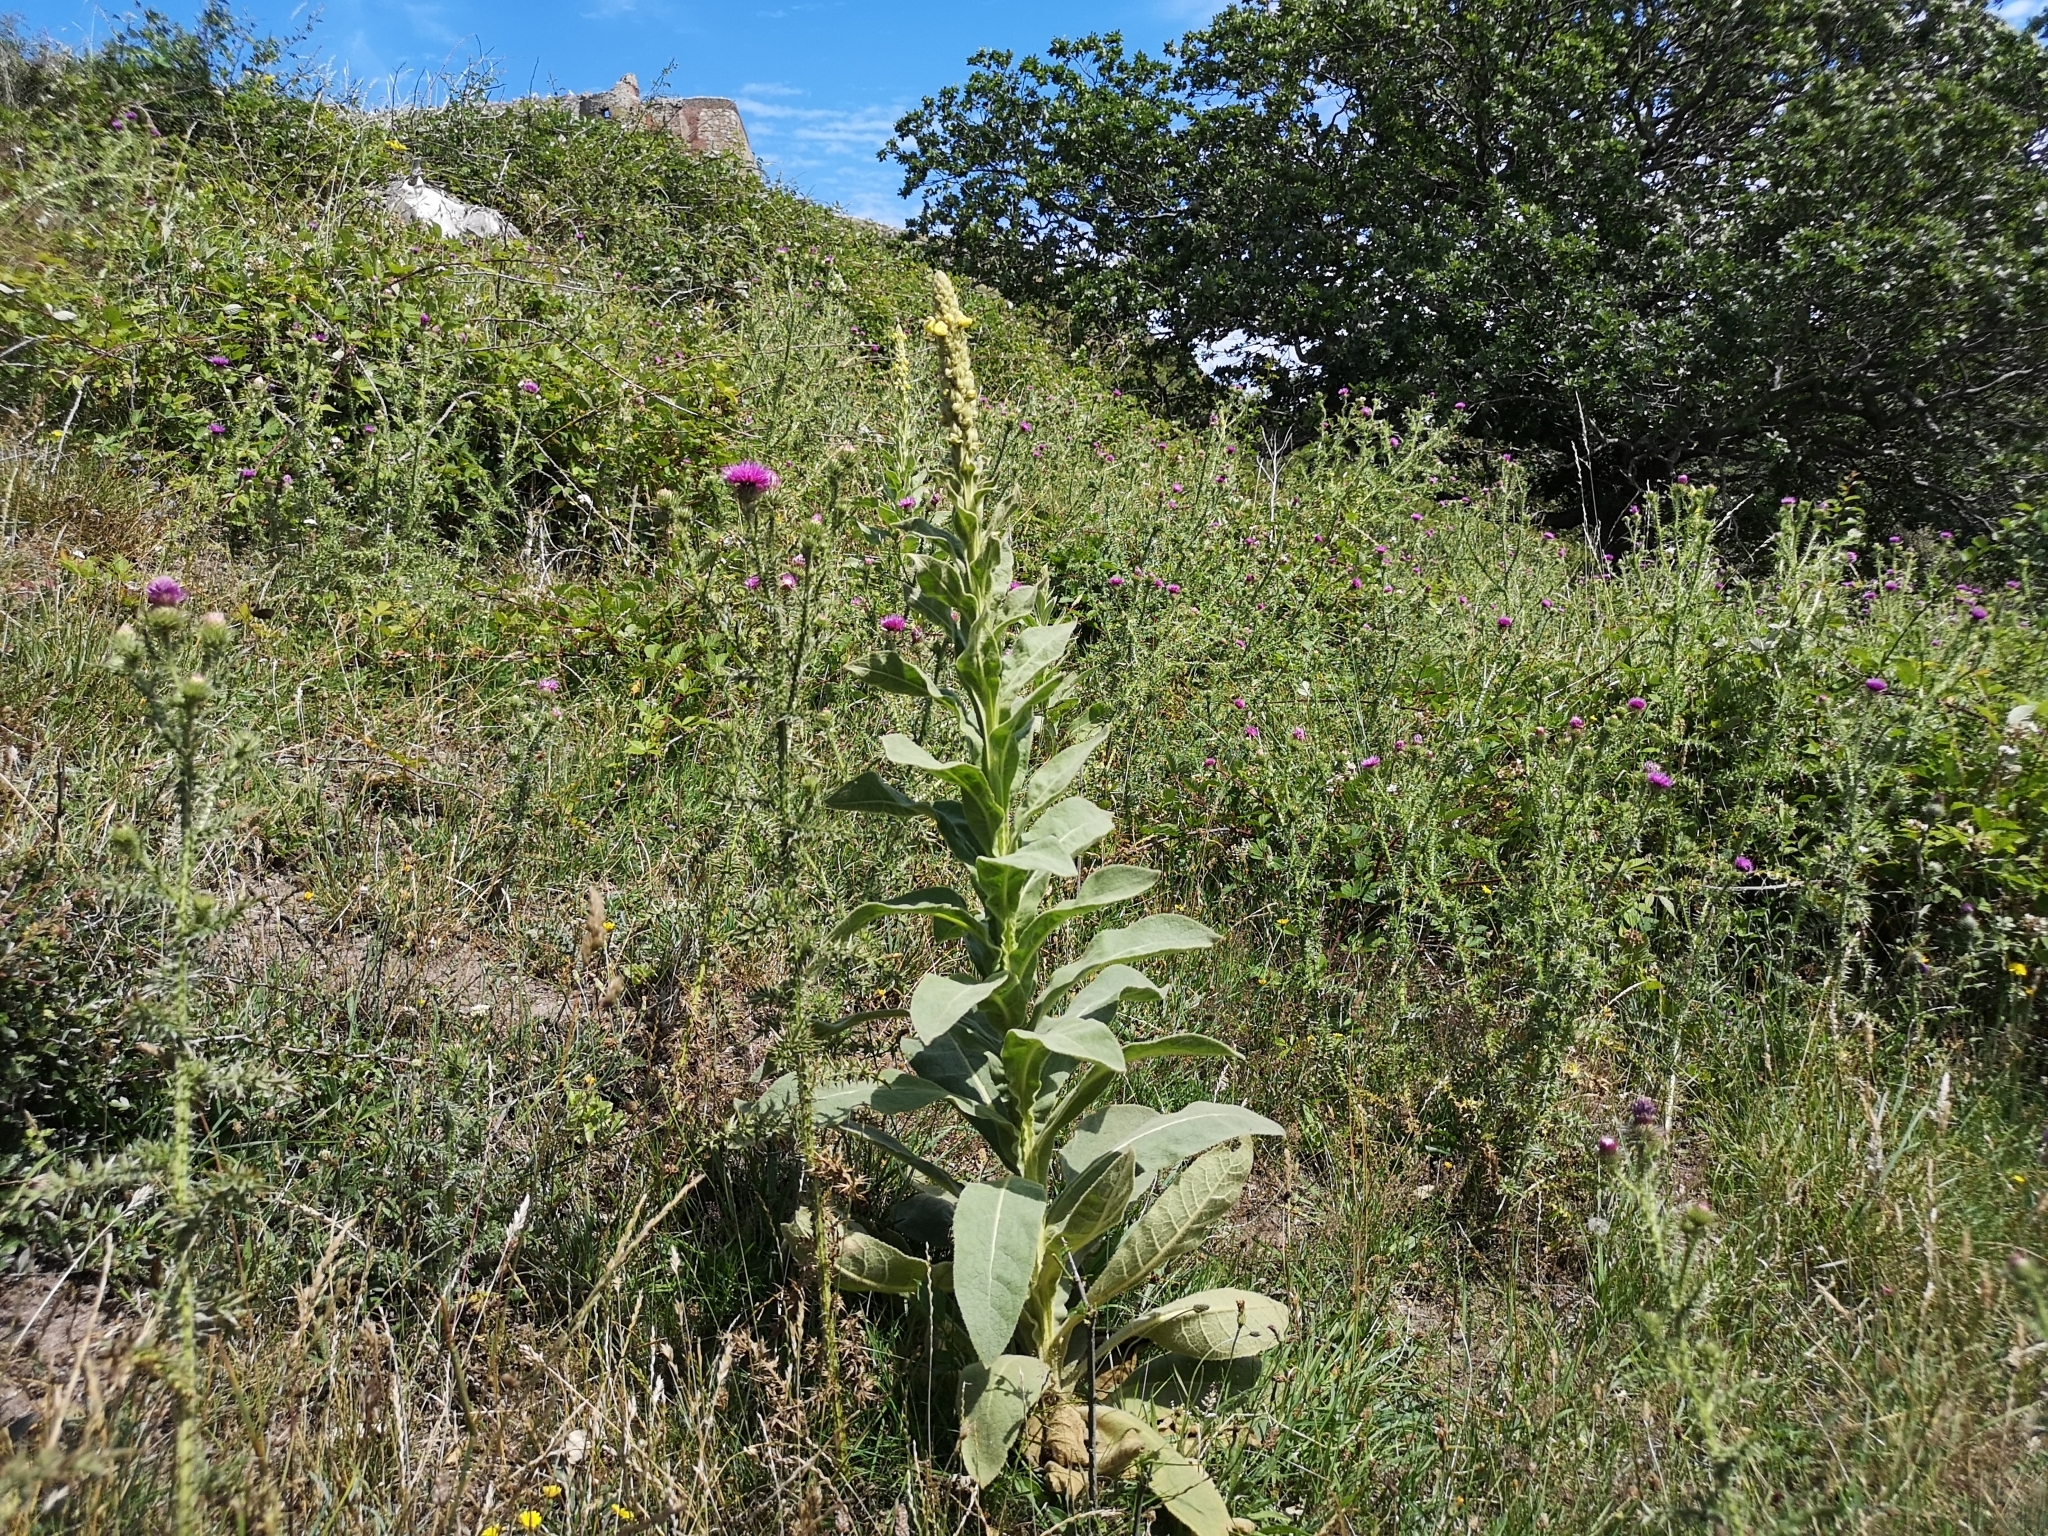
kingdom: Plantae
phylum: Tracheophyta
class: Magnoliopsida
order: Lamiales
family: Scrophulariaceae
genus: Verbascum
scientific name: Verbascum thapsus
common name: Common mullein
